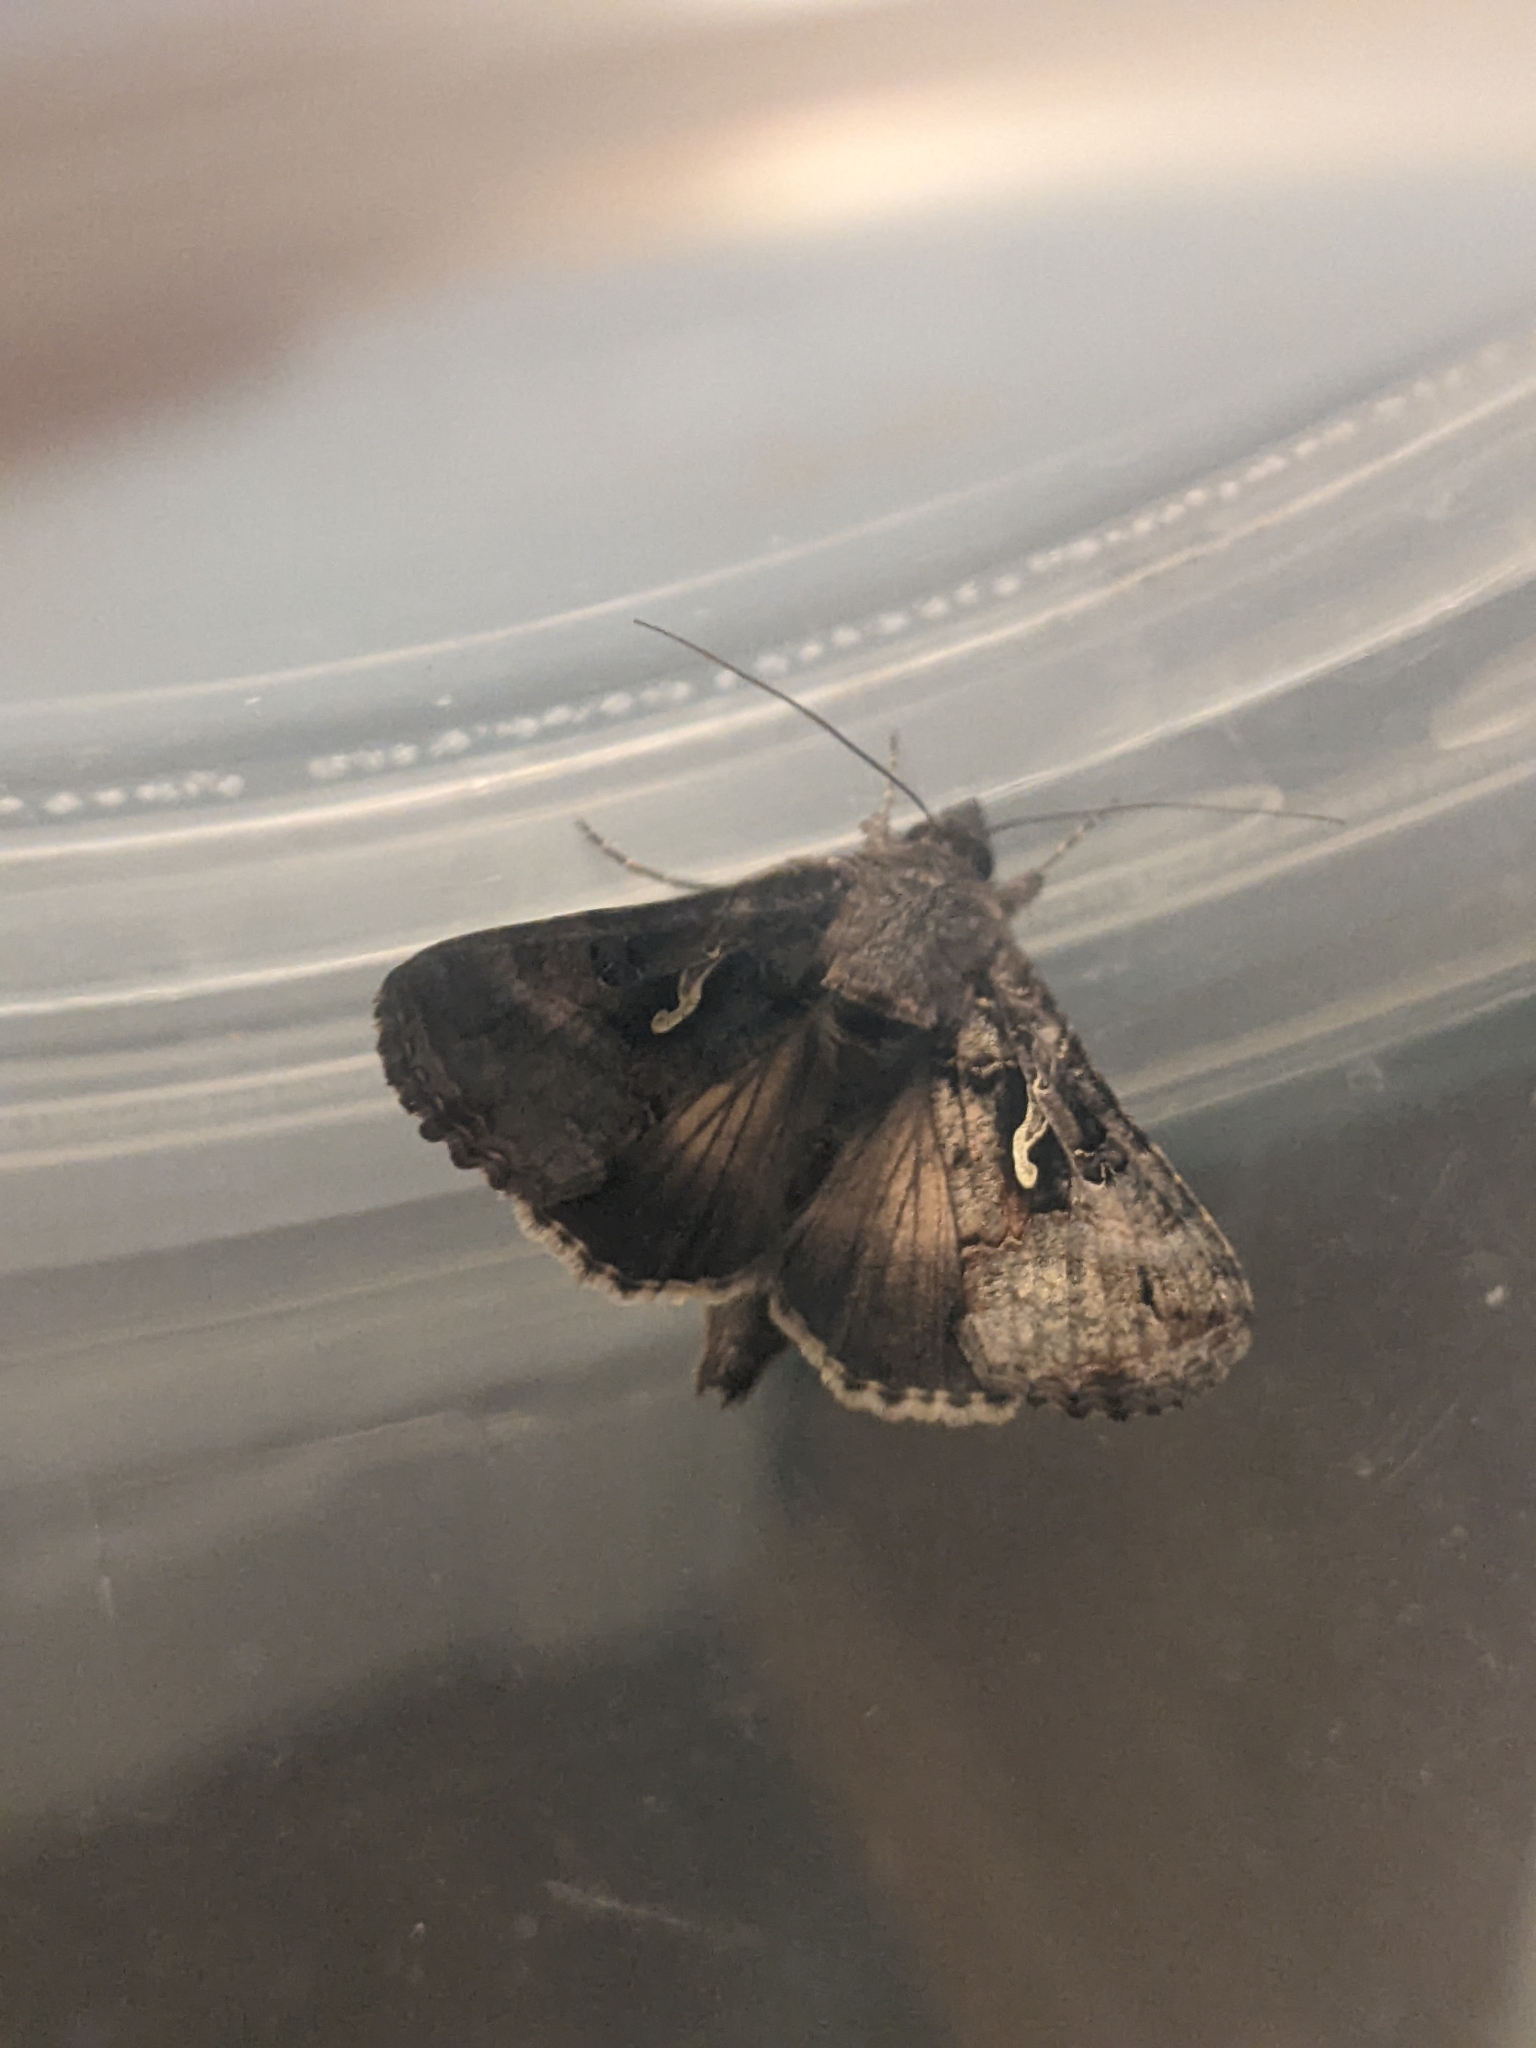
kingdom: Animalia
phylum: Arthropoda
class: Insecta
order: Lepidoptera
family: Noctuidae
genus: Autographa
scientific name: Autographa gamma
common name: Silver y
